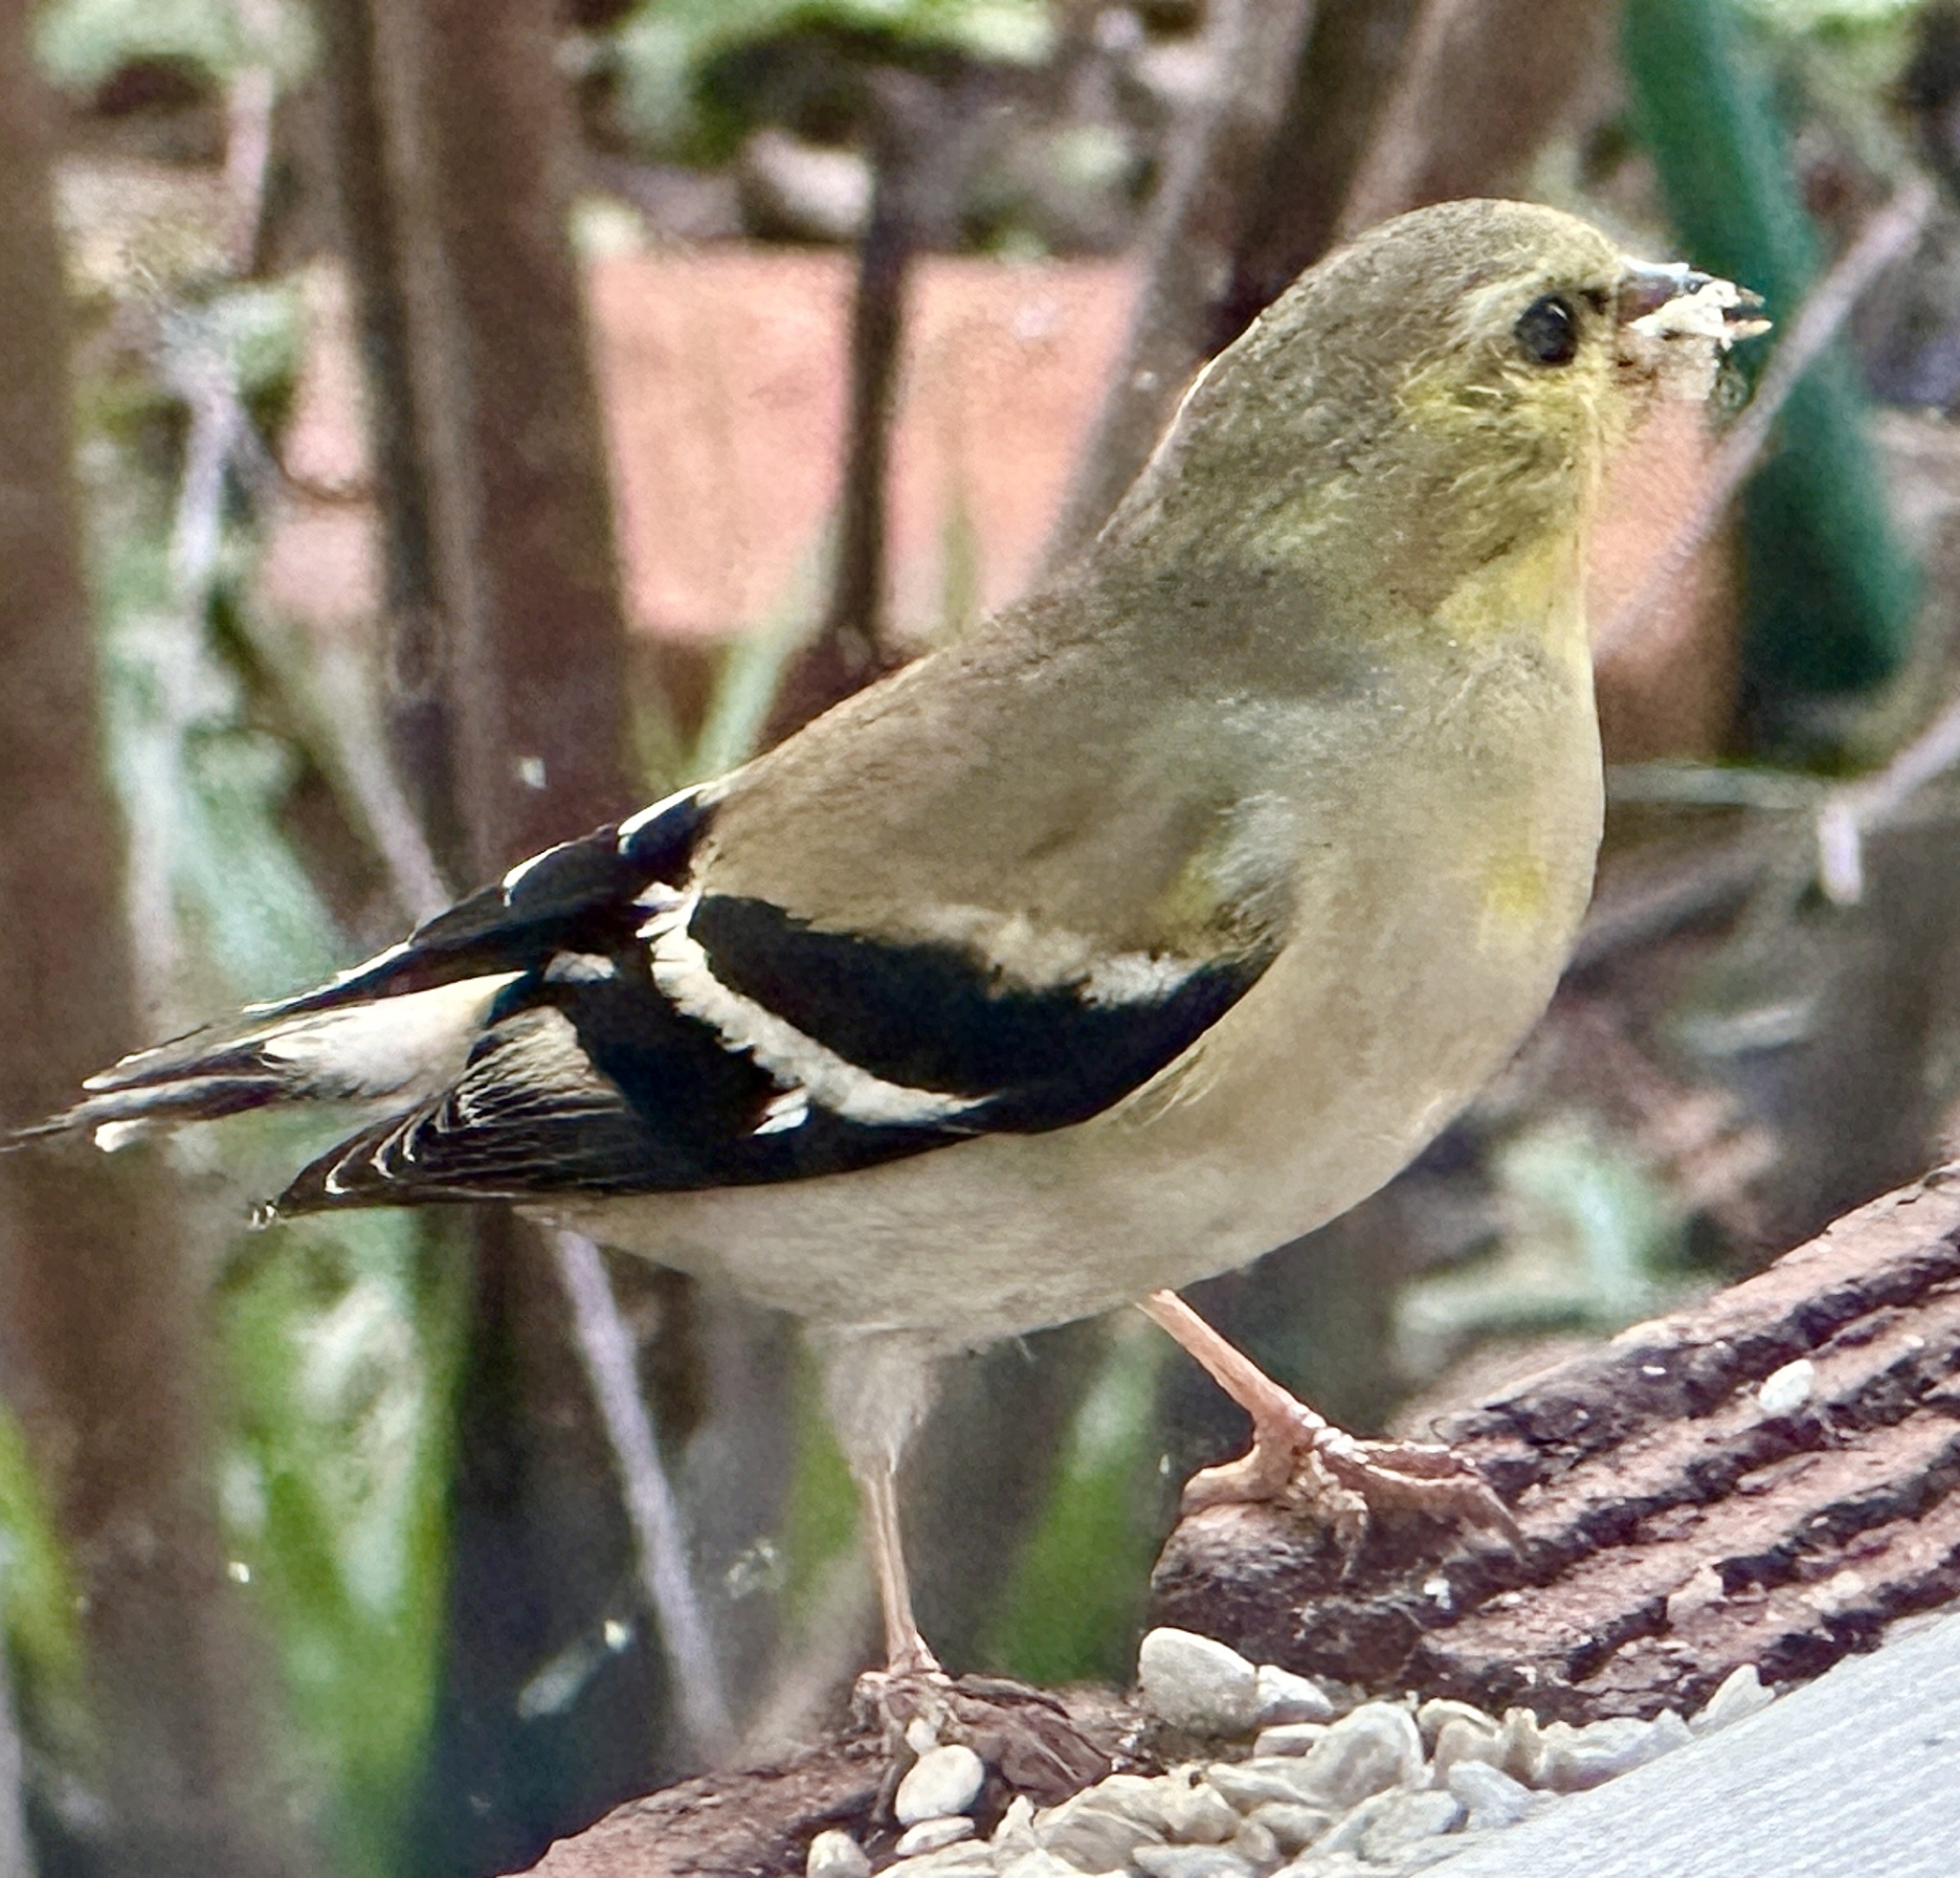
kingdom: Animalia
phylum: Chordata
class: Aves
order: Passeriformes
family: Fringillidae
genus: Spinus
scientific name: Spinus tristis
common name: American goldfinch
